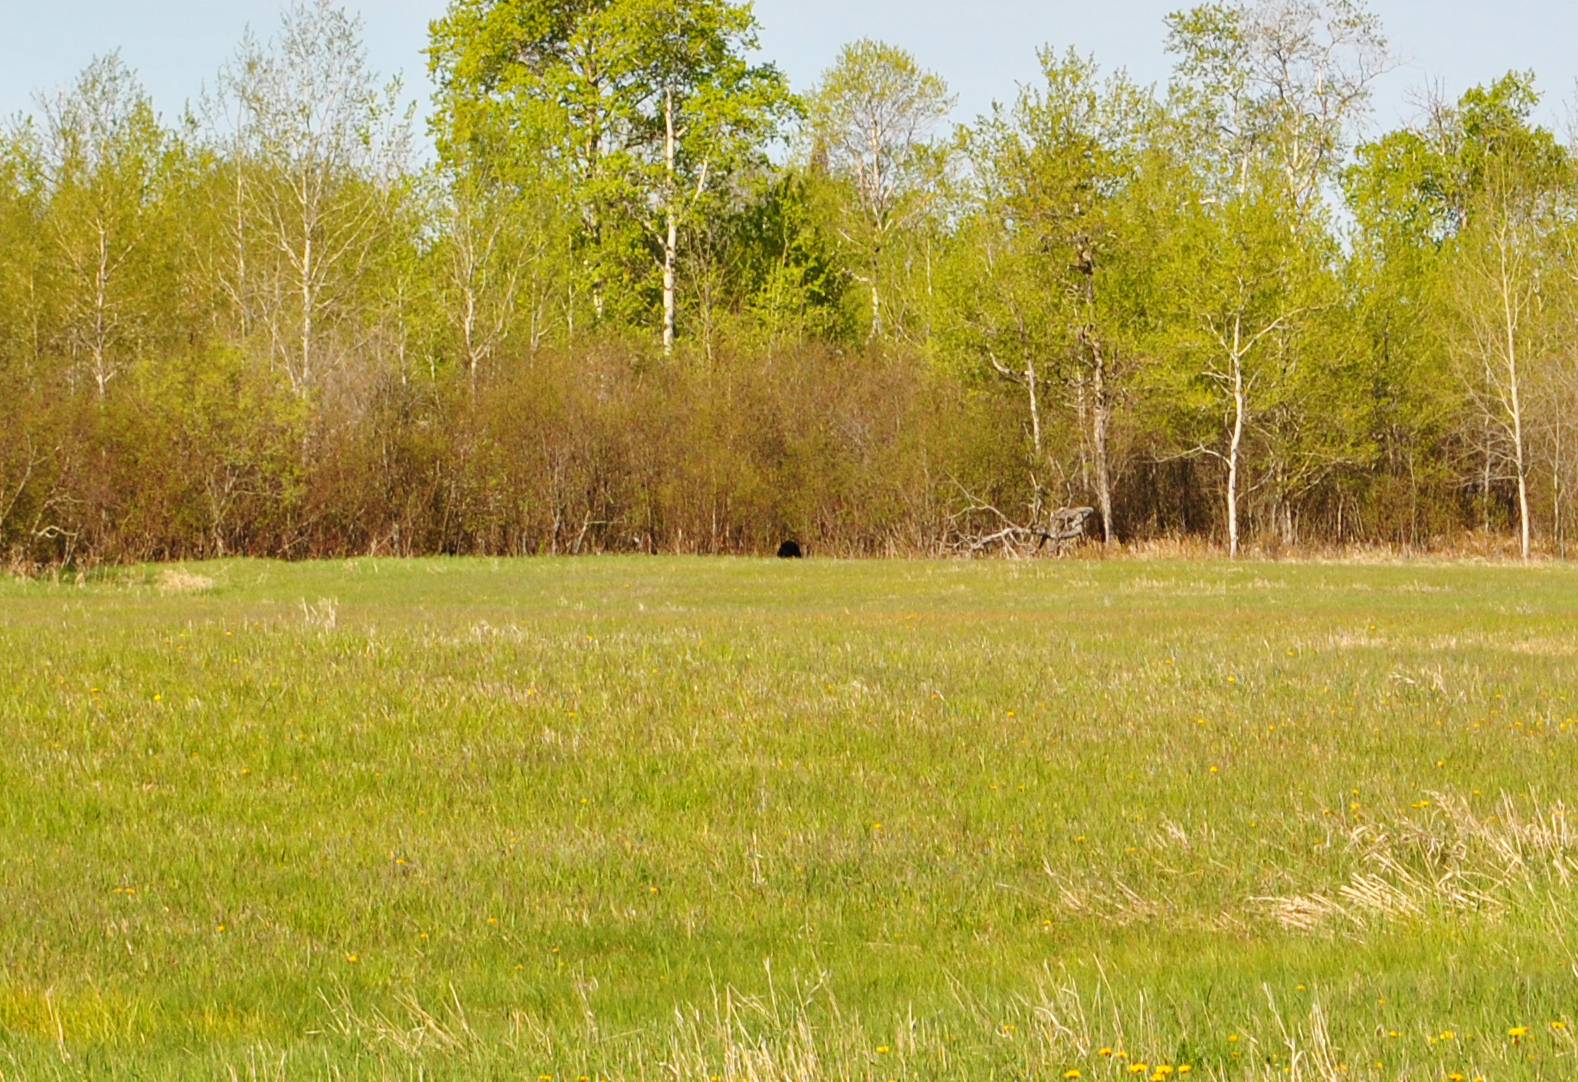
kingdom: Animalia
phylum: Chordata
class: Mammalia
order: Carnivora
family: Ursidae
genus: Ursus
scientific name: Ursus americanus
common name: American black bear
